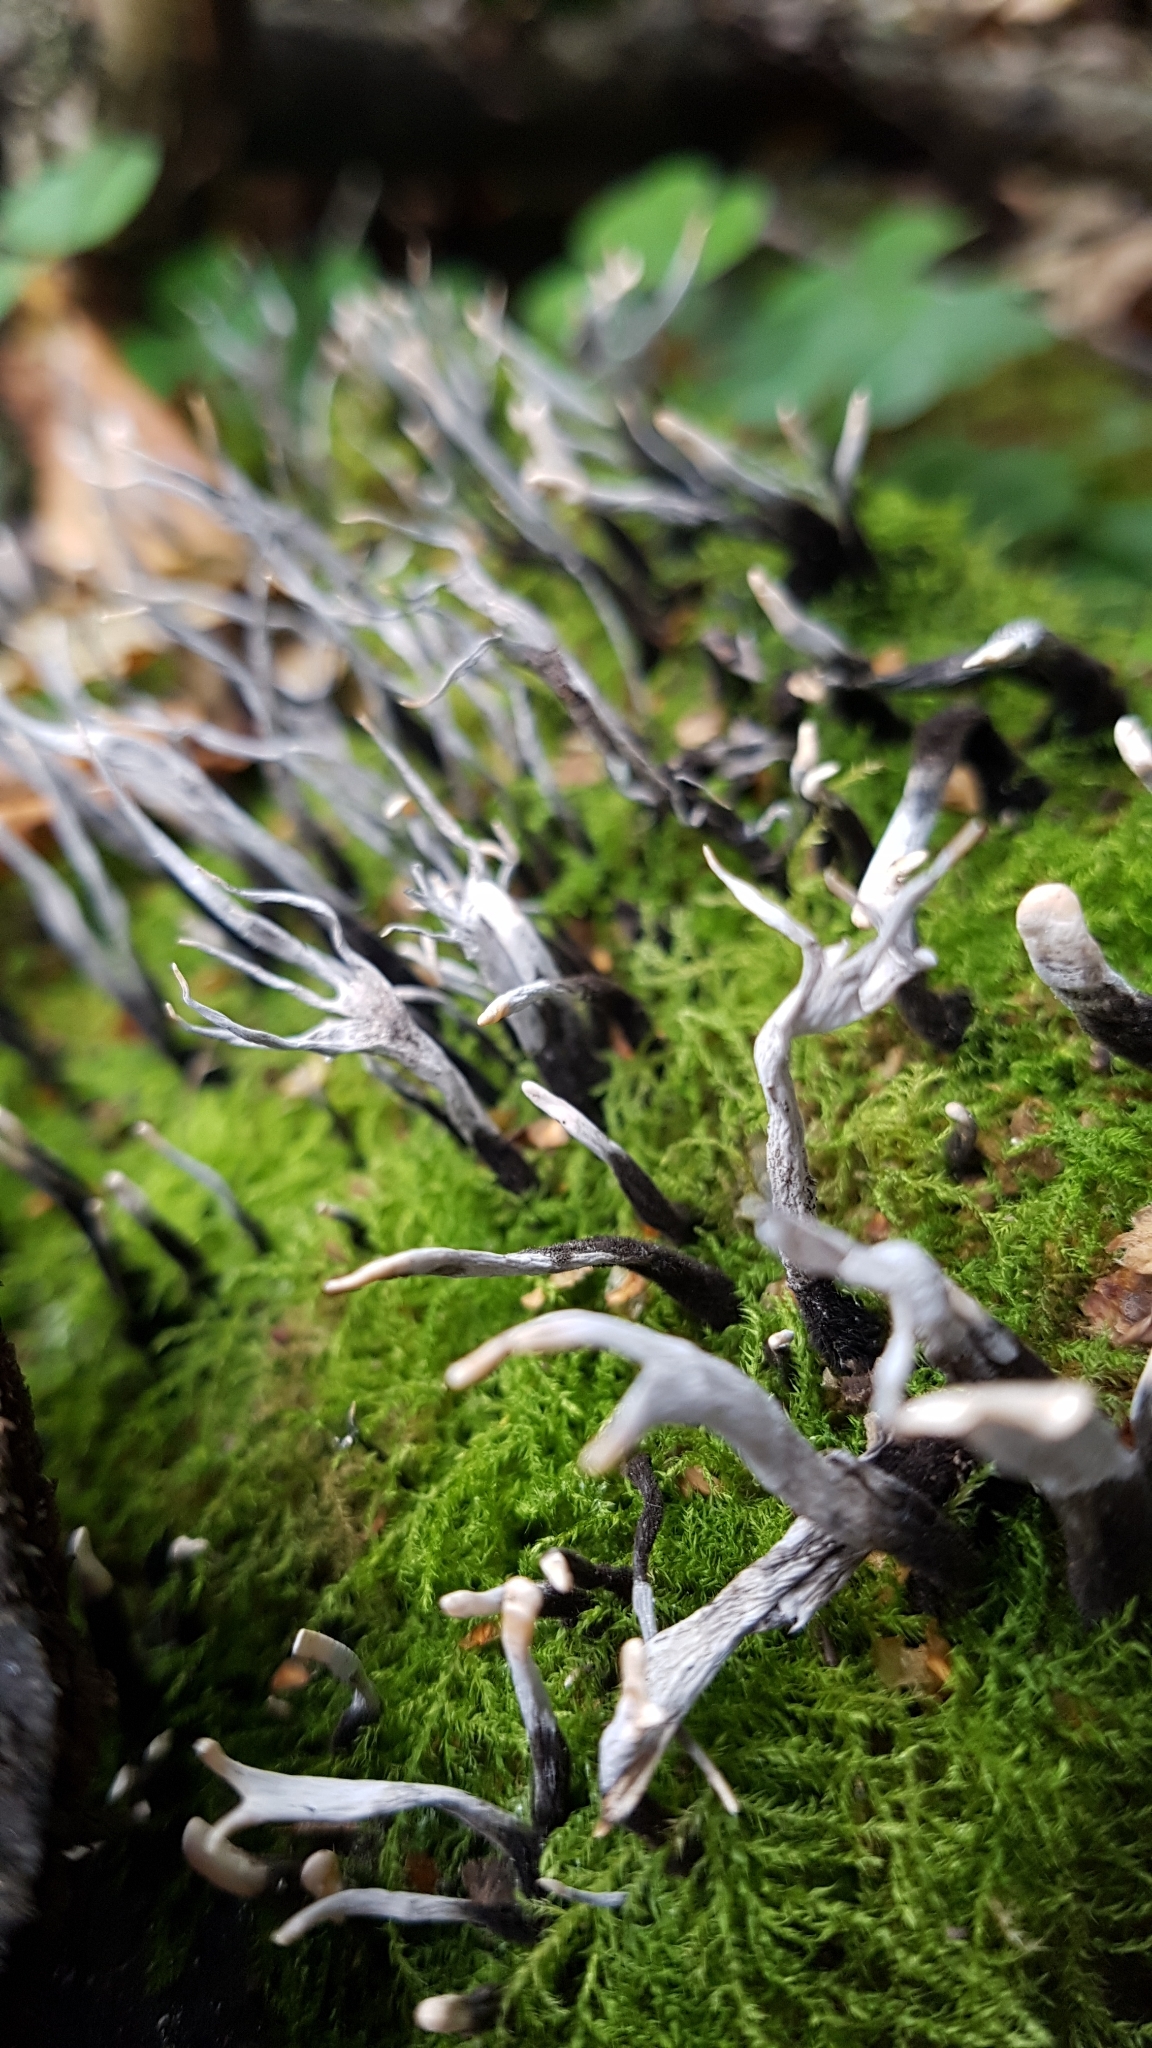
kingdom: Fungi
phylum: Ascomycota
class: Sordariomycetes
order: Xylariales
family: Xylariaceae
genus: Xylaria
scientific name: Xylaria hypoxylon
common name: Candle-snuff fungus
